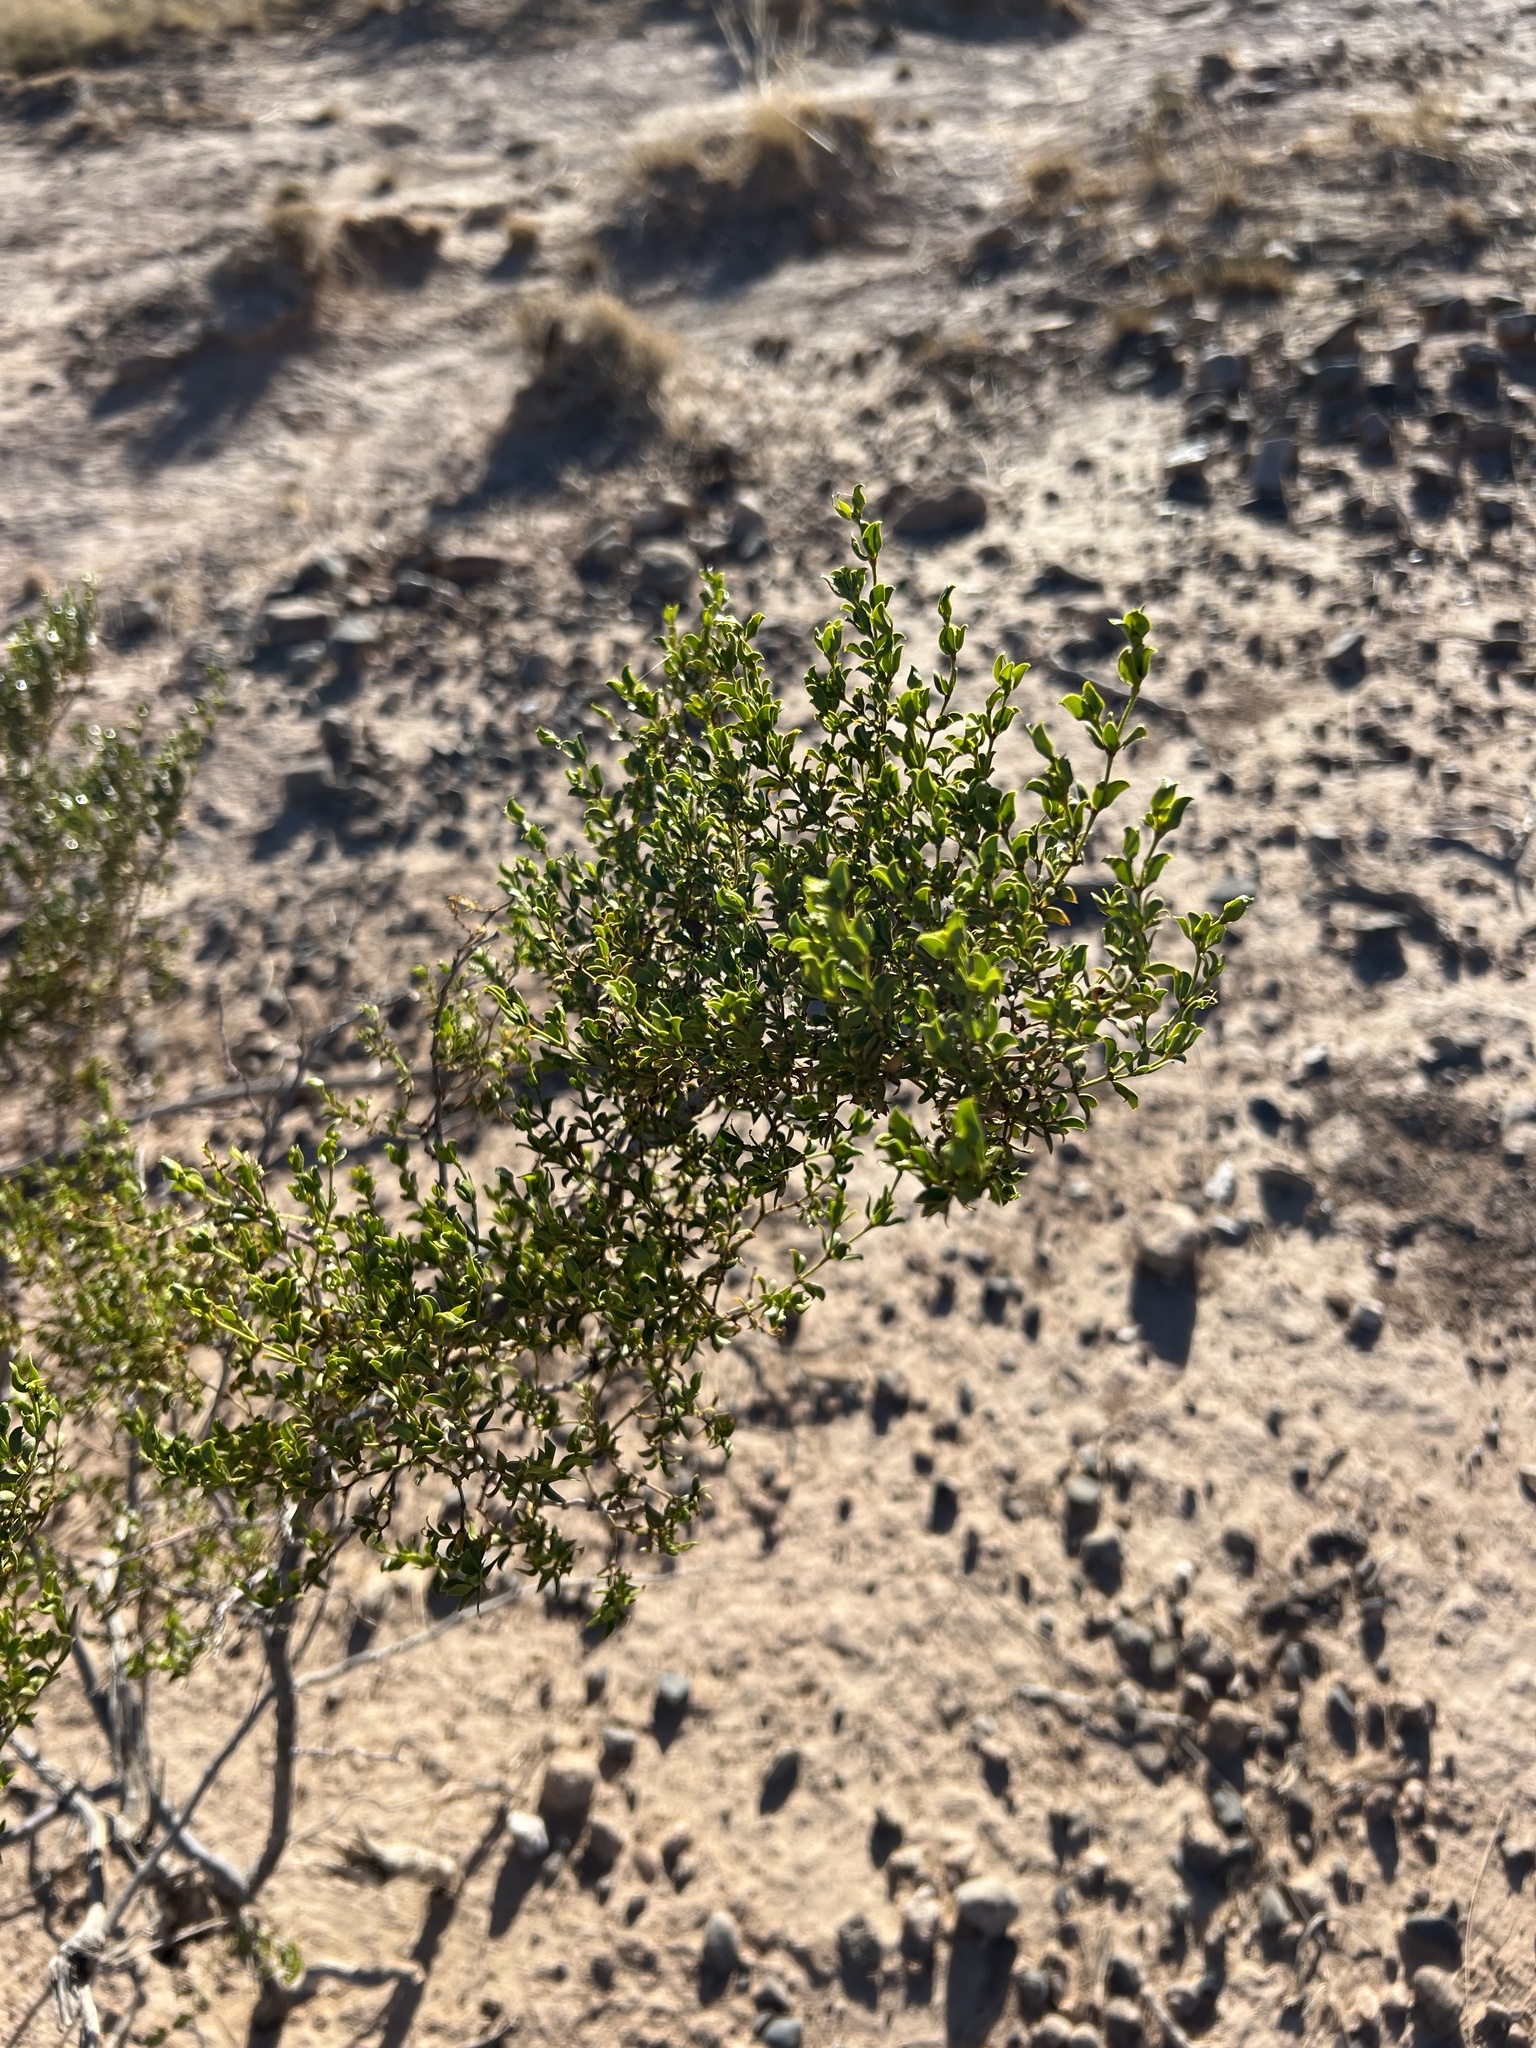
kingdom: Plantae
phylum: Tracheophyta
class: Magnoliopsida
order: Zygophyllales
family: Zygophyllaceae
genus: Larrea
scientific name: Larrea tridentata
